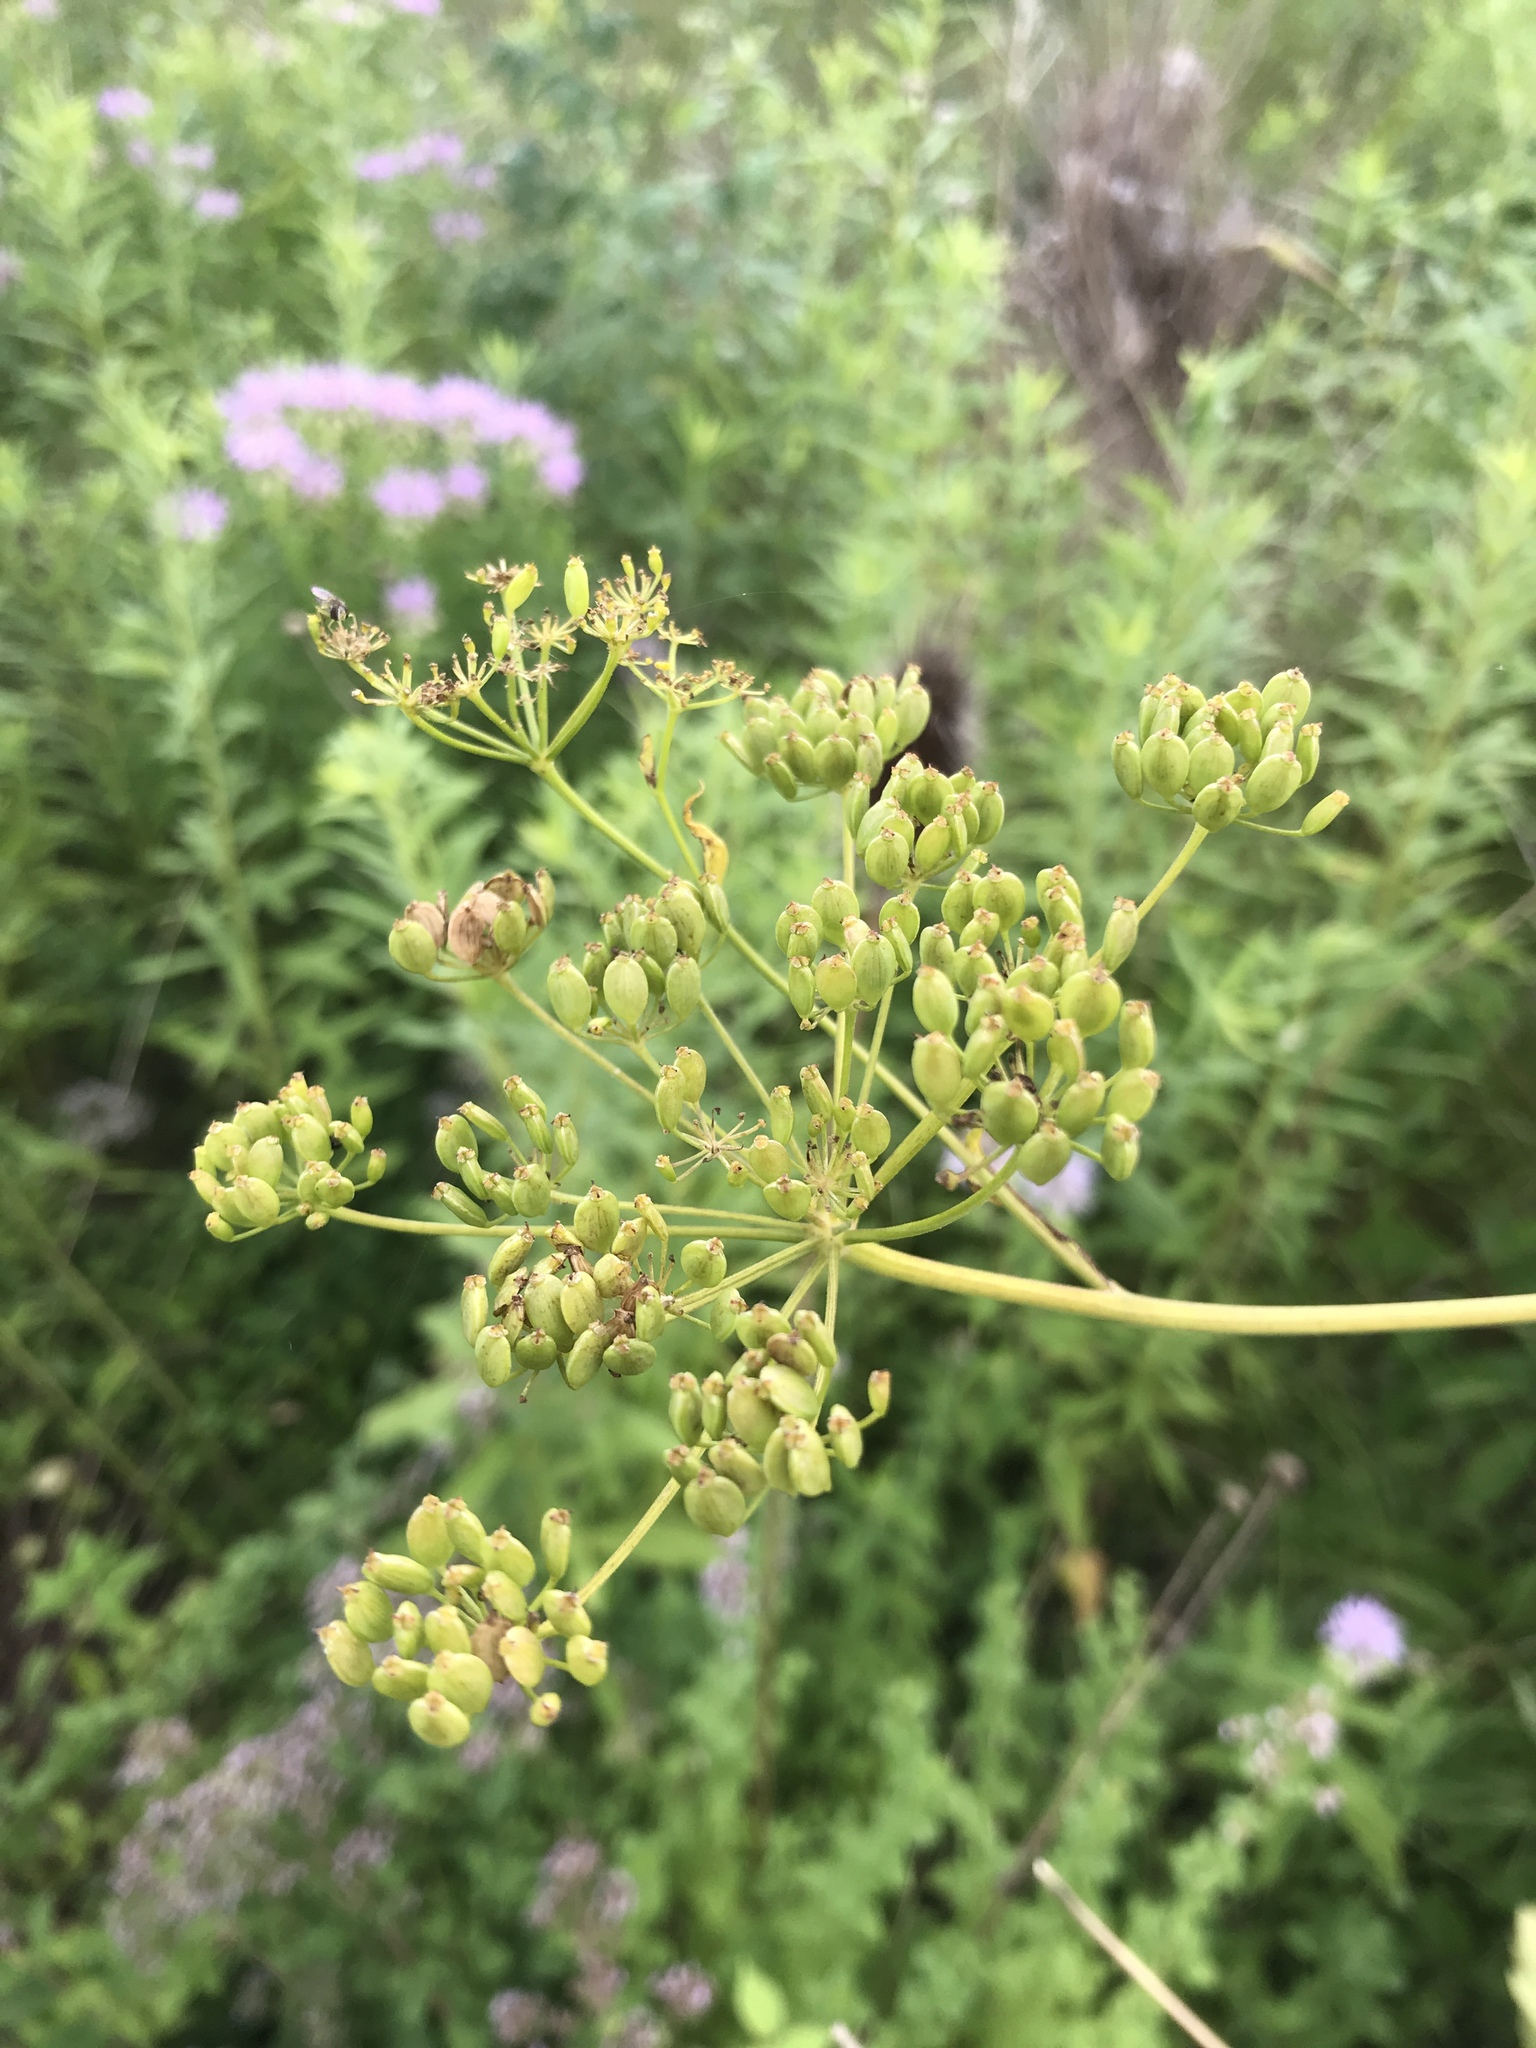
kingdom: Plantae
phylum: Tracheophyta
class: Magnoliopsida
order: Apiales
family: Apiaceae
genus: Pastinaca
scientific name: Pastinaca sativa
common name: Wild parsnip
